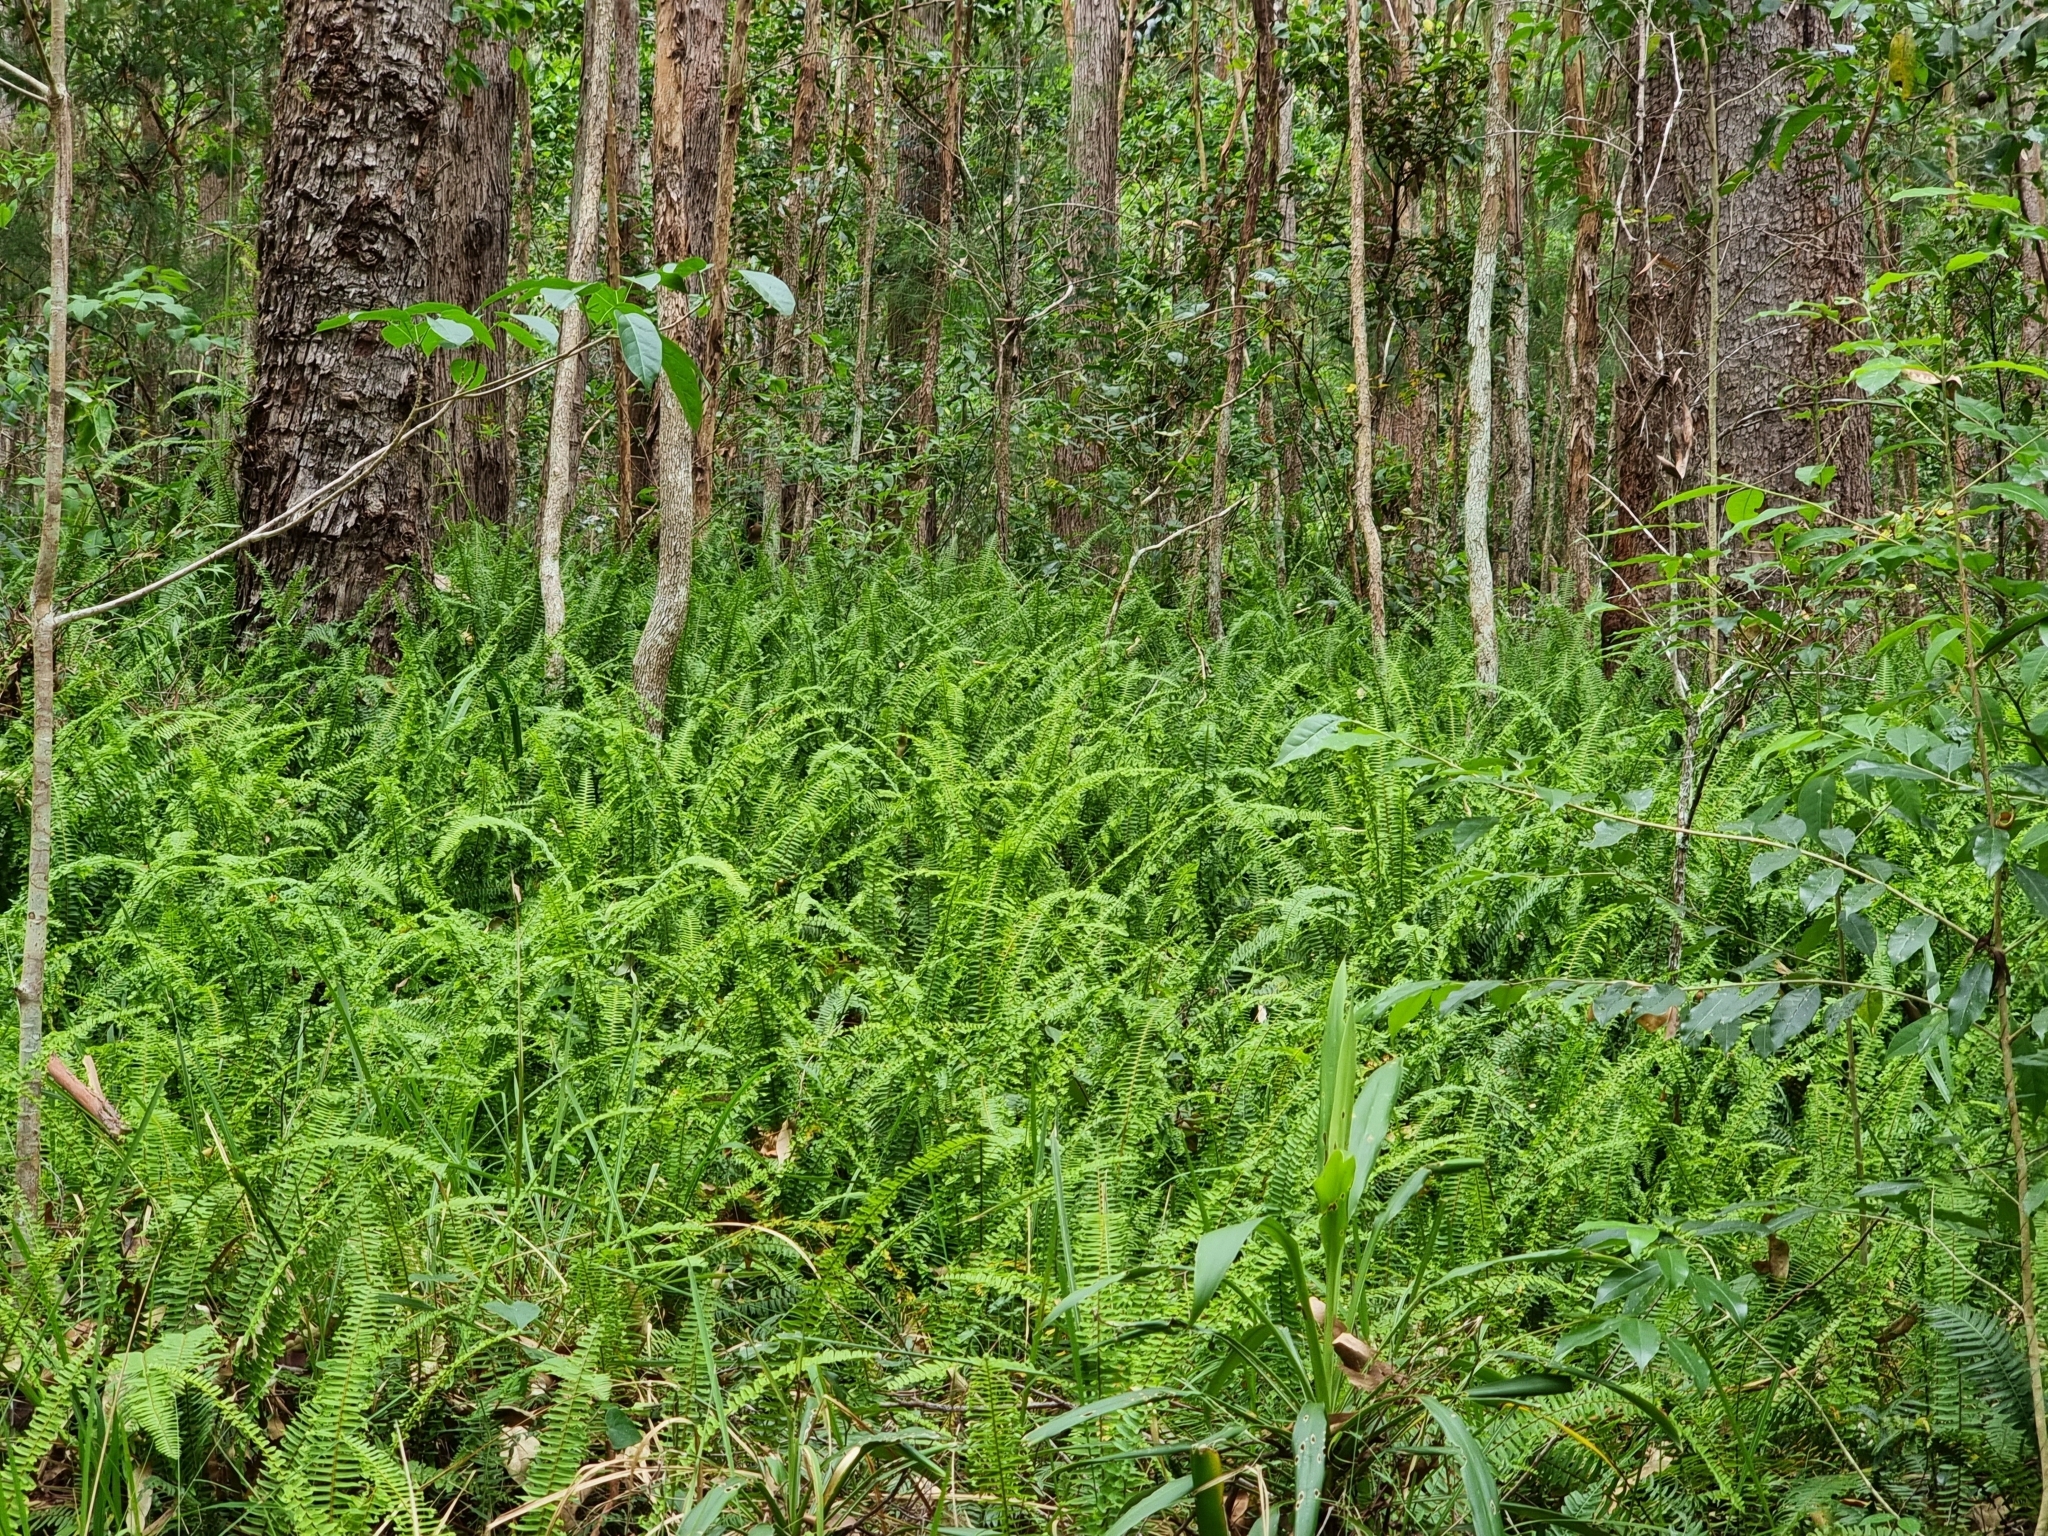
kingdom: Plantae
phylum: Tracheophyta
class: Polypodiopsida
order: Polypodiales
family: Nephrolepidaceae
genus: Nephrolepis
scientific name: Nephrolepis cordifolia
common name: Narrow swordfern
